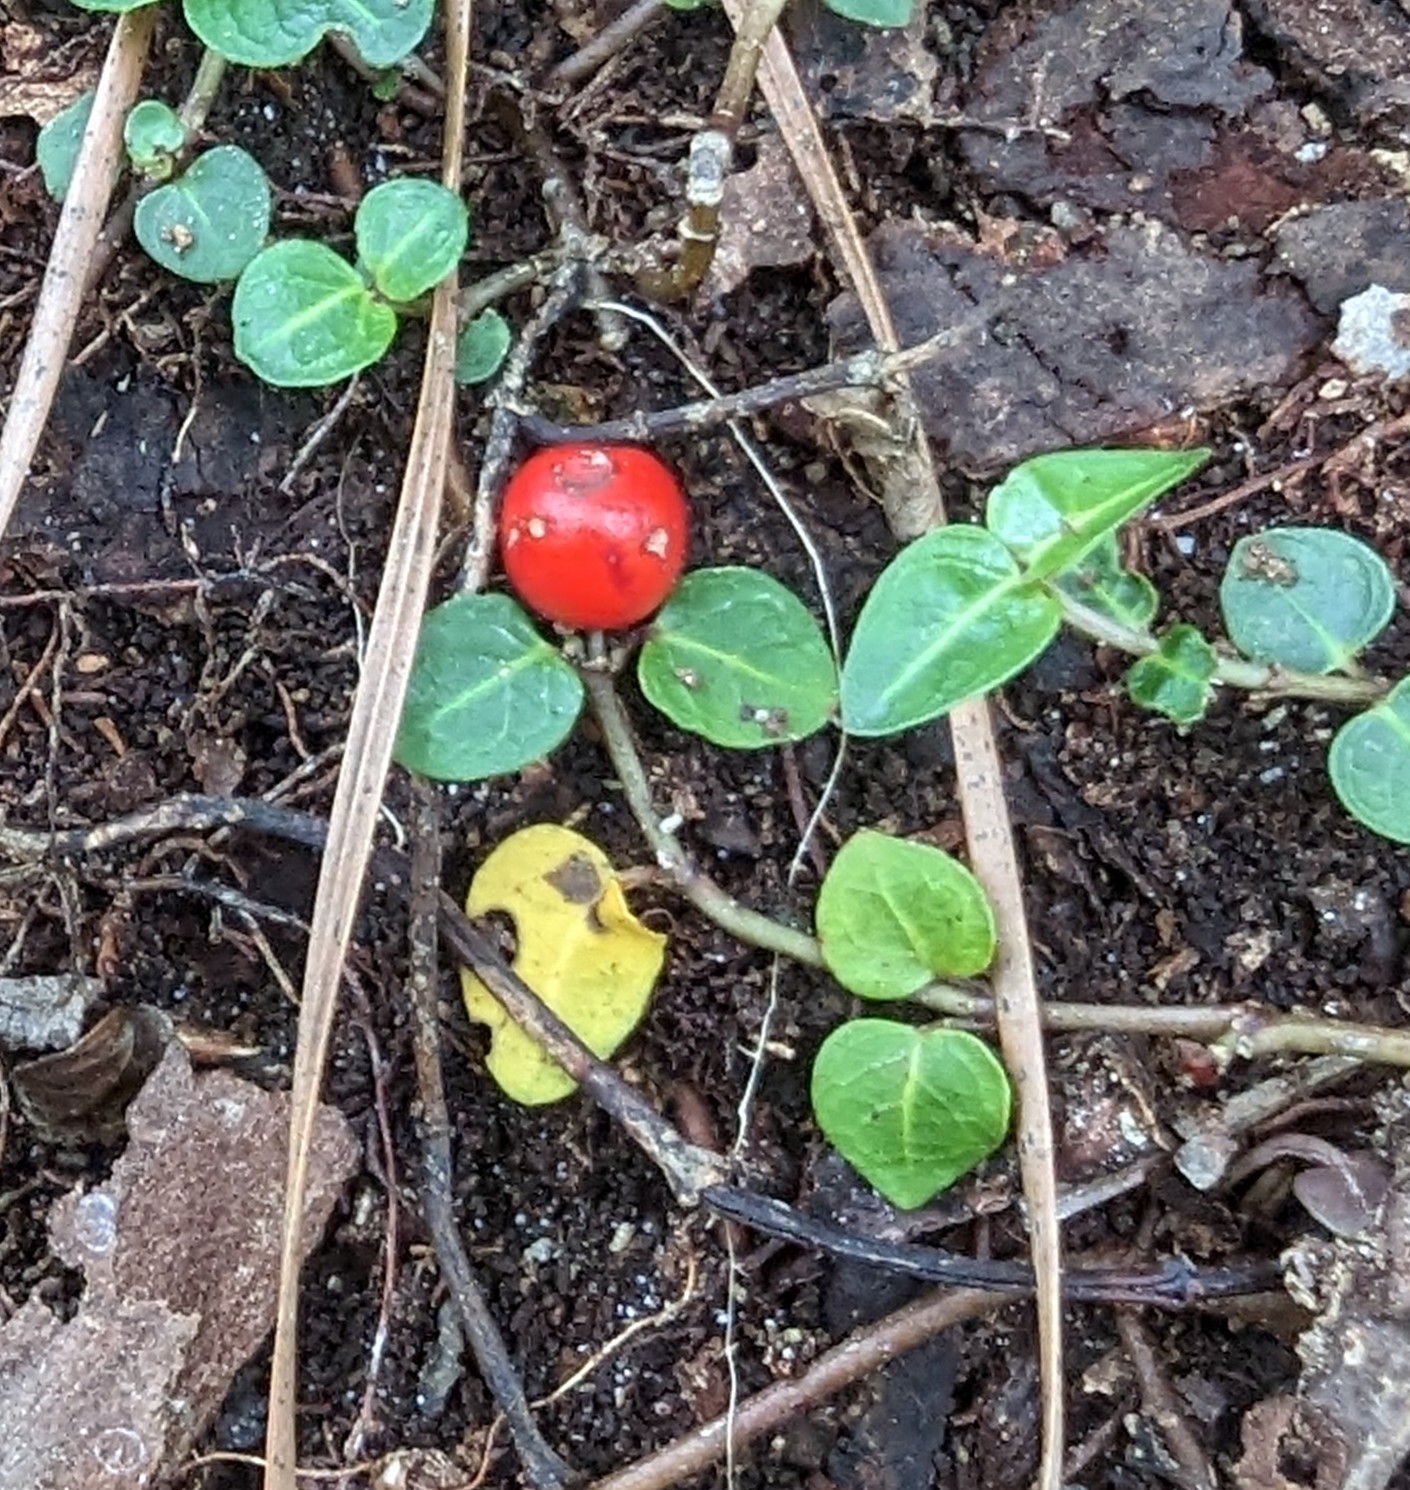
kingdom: Plantae
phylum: Tracheophyta
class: Magnoliopsida
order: Gentianales
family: Rubiaceae
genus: Mitchella
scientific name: Mitchella repens
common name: Partridge-berry
